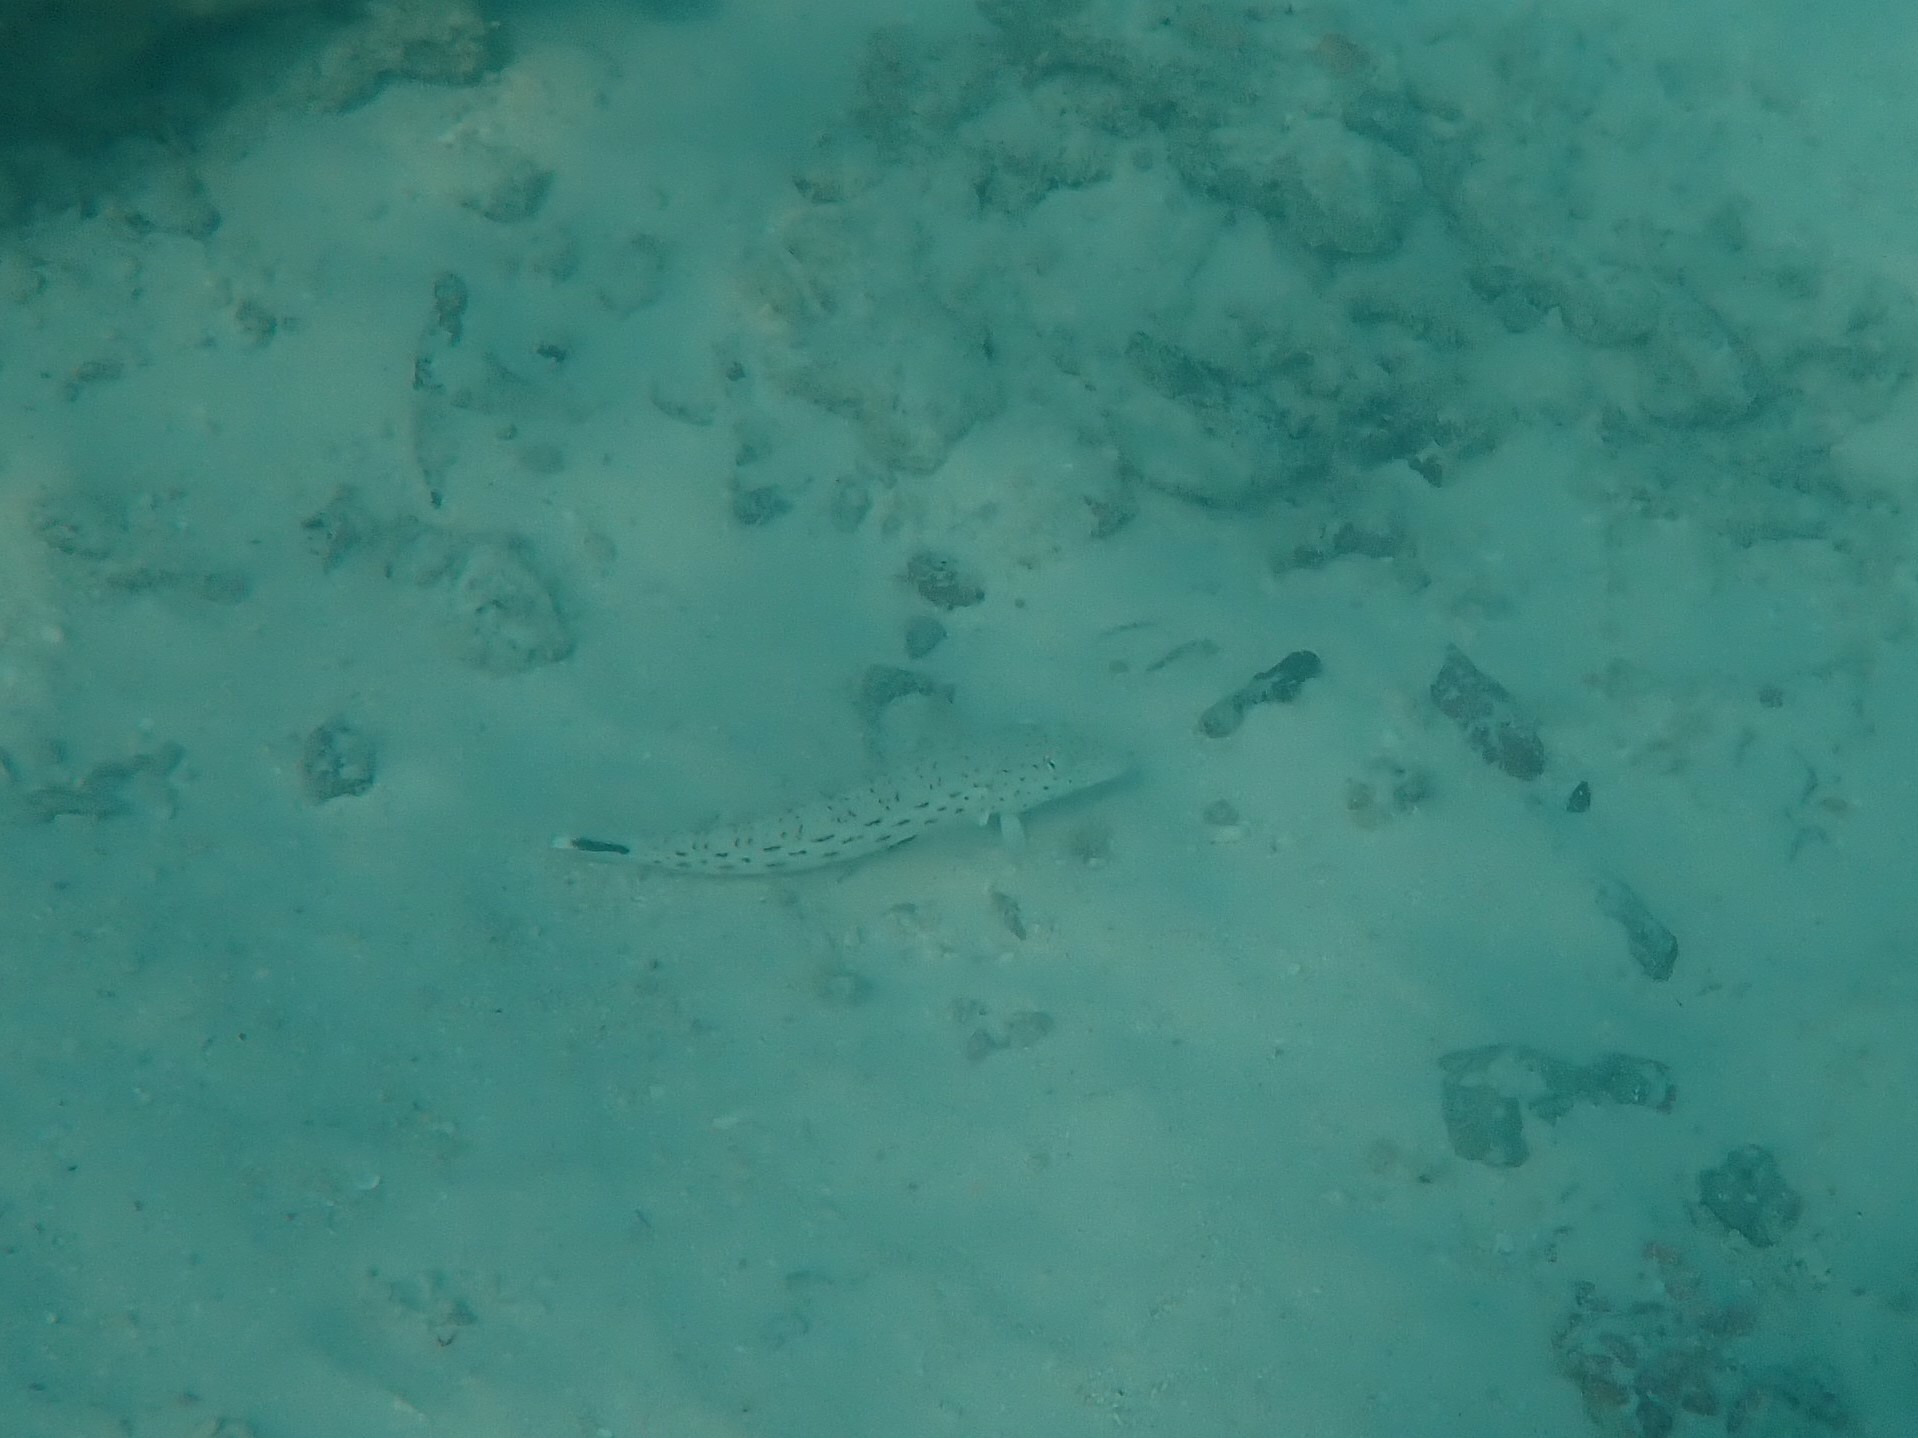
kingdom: Animalia
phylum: Chordata
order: Perciformes
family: Pinguipedidae
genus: Parapercis
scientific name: Parapercis hexophtalma
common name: Speckled sandperch
